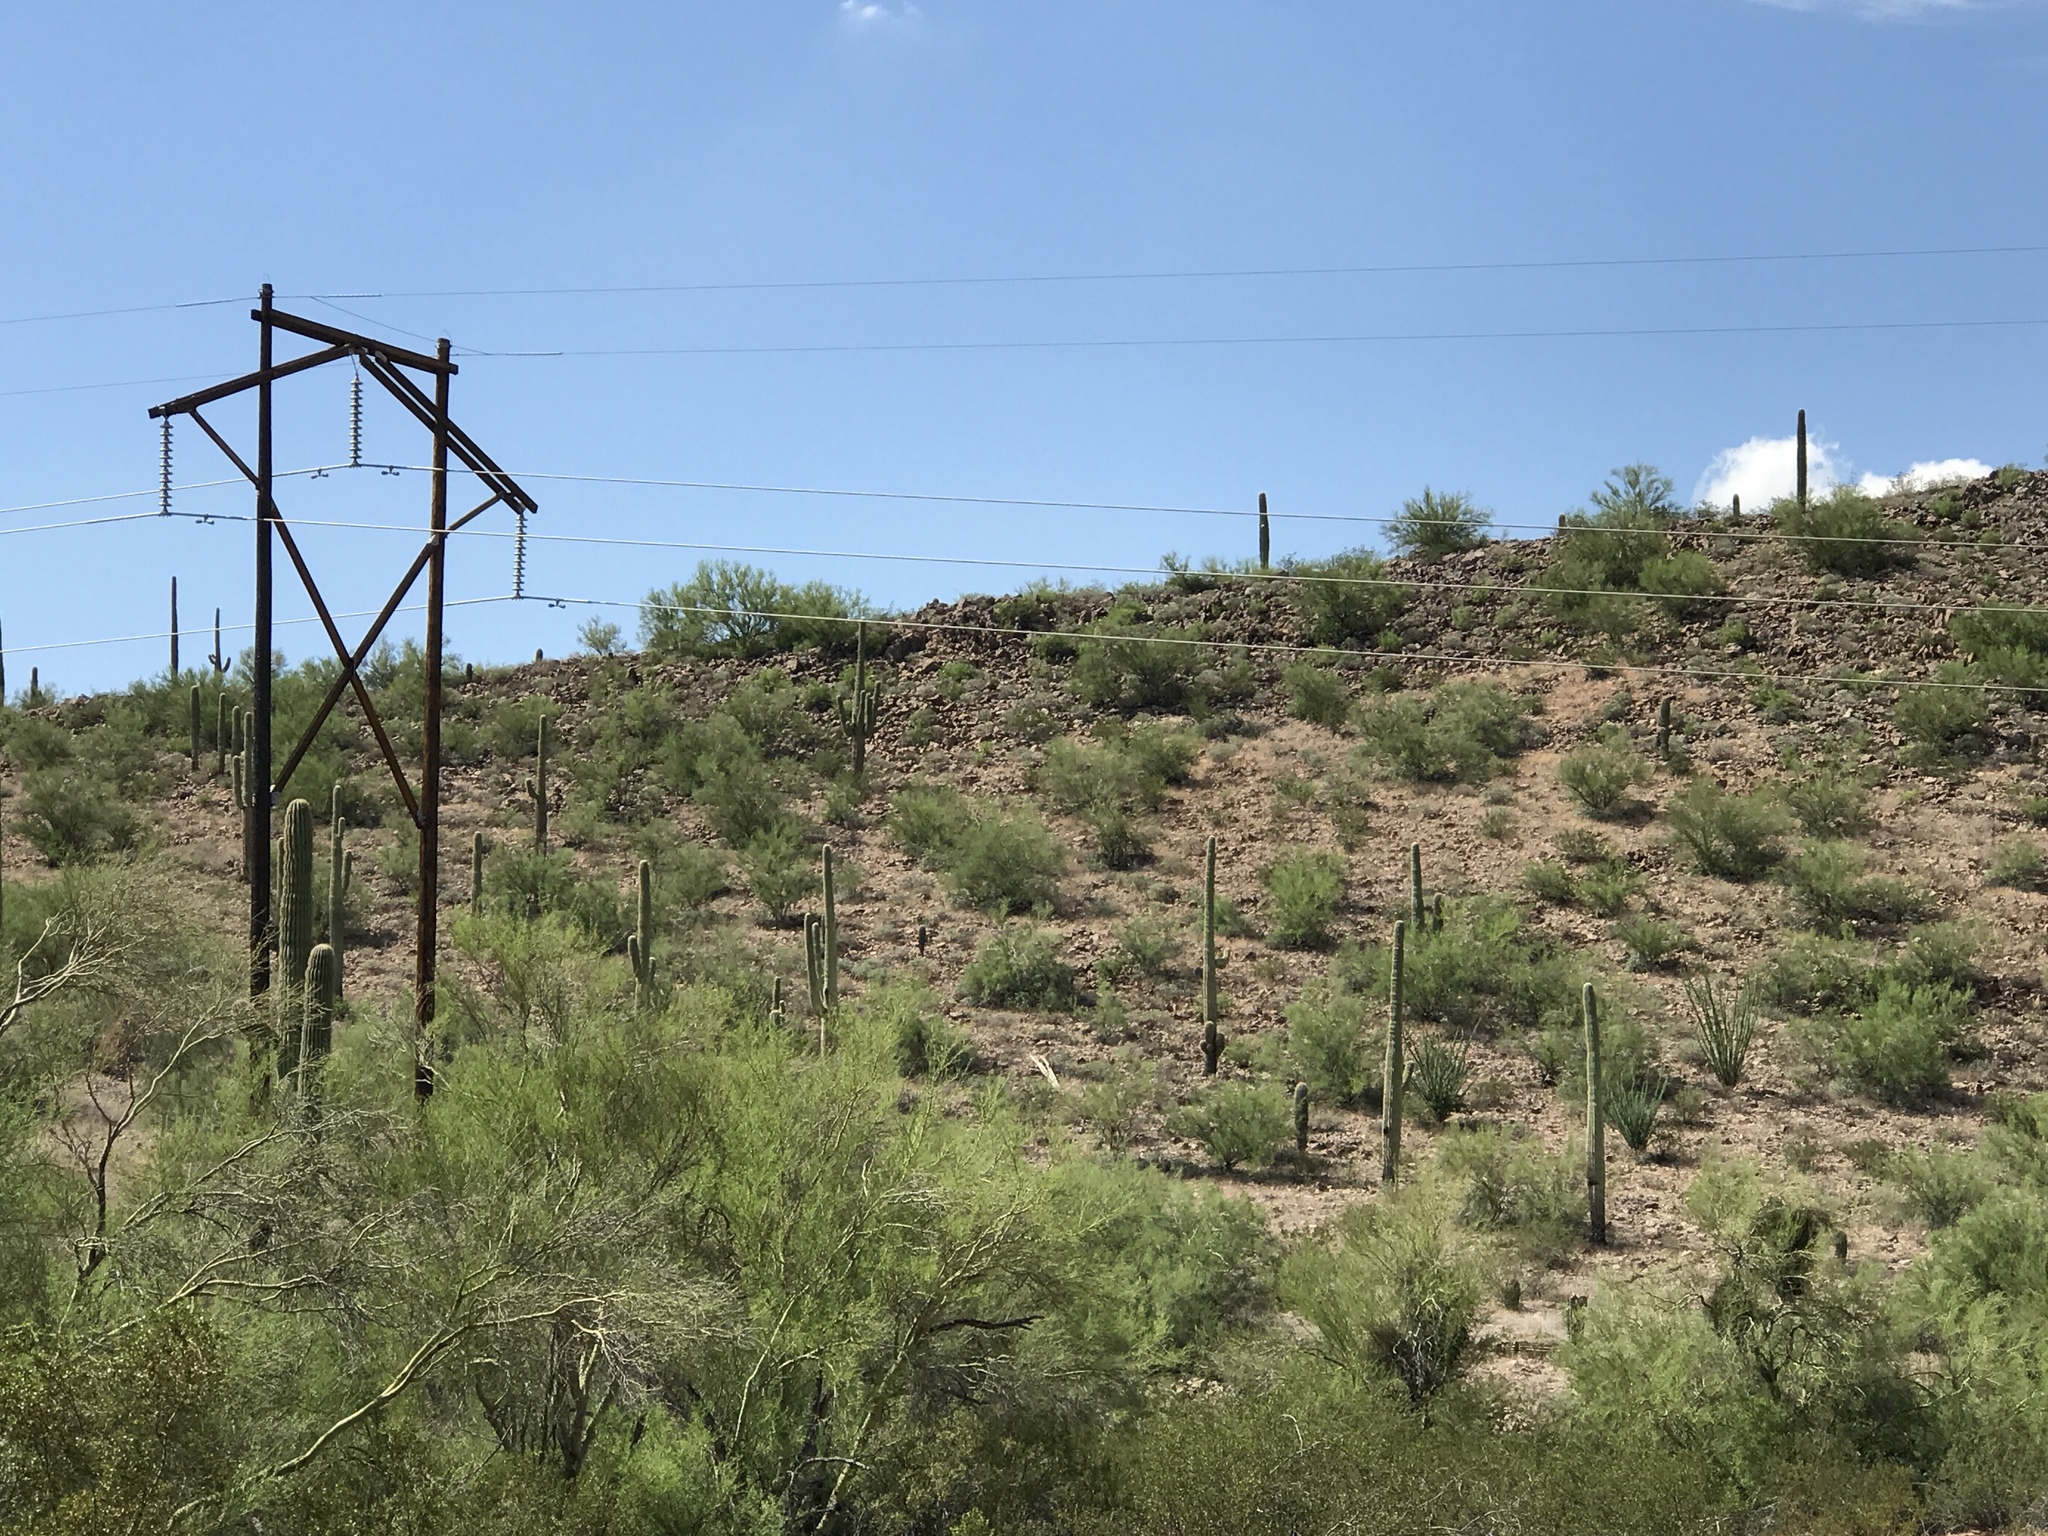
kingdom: Plantae
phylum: Tracheophyta
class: Magnoliopsida
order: Caryophyllales
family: Cactaceae
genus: Carnegiea
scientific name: Carnegiea gigantea
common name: Saguaro
